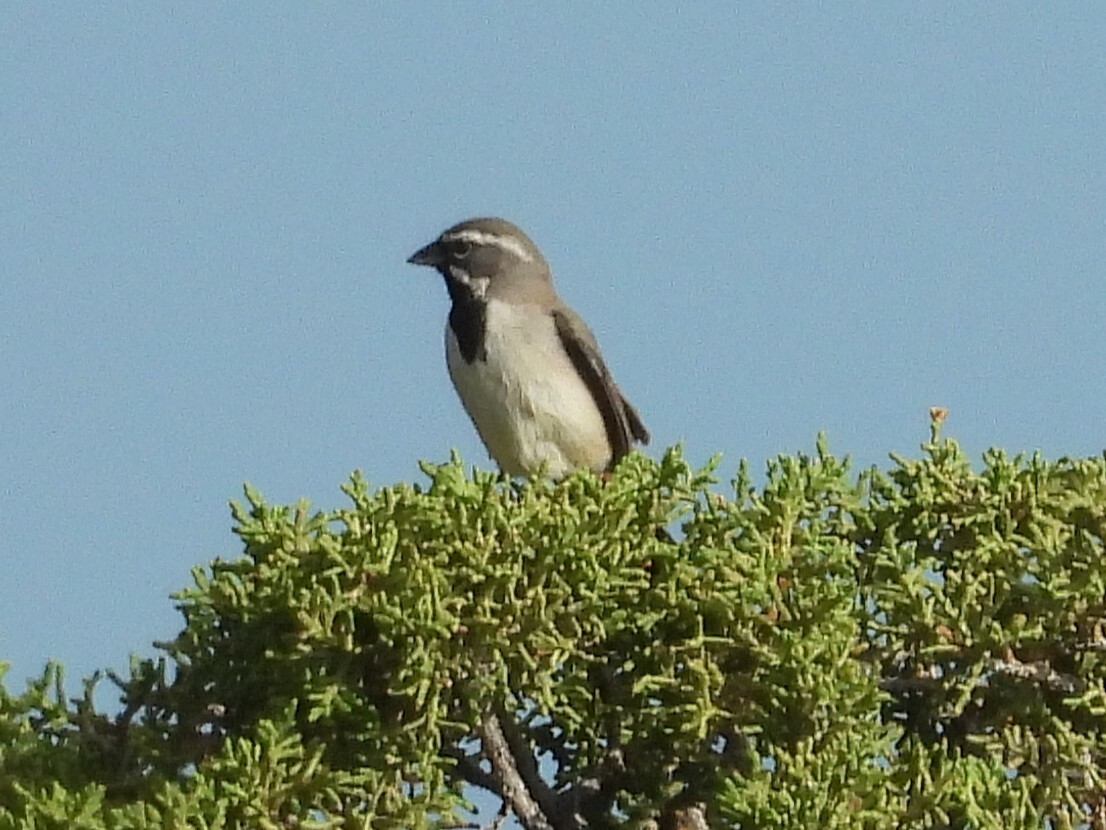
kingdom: Animalia
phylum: Chordata
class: Aves
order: Passeriformes
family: Passerellidae
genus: Amphispiza
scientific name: Amphispiza bilineata
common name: Black-throated sparrow
